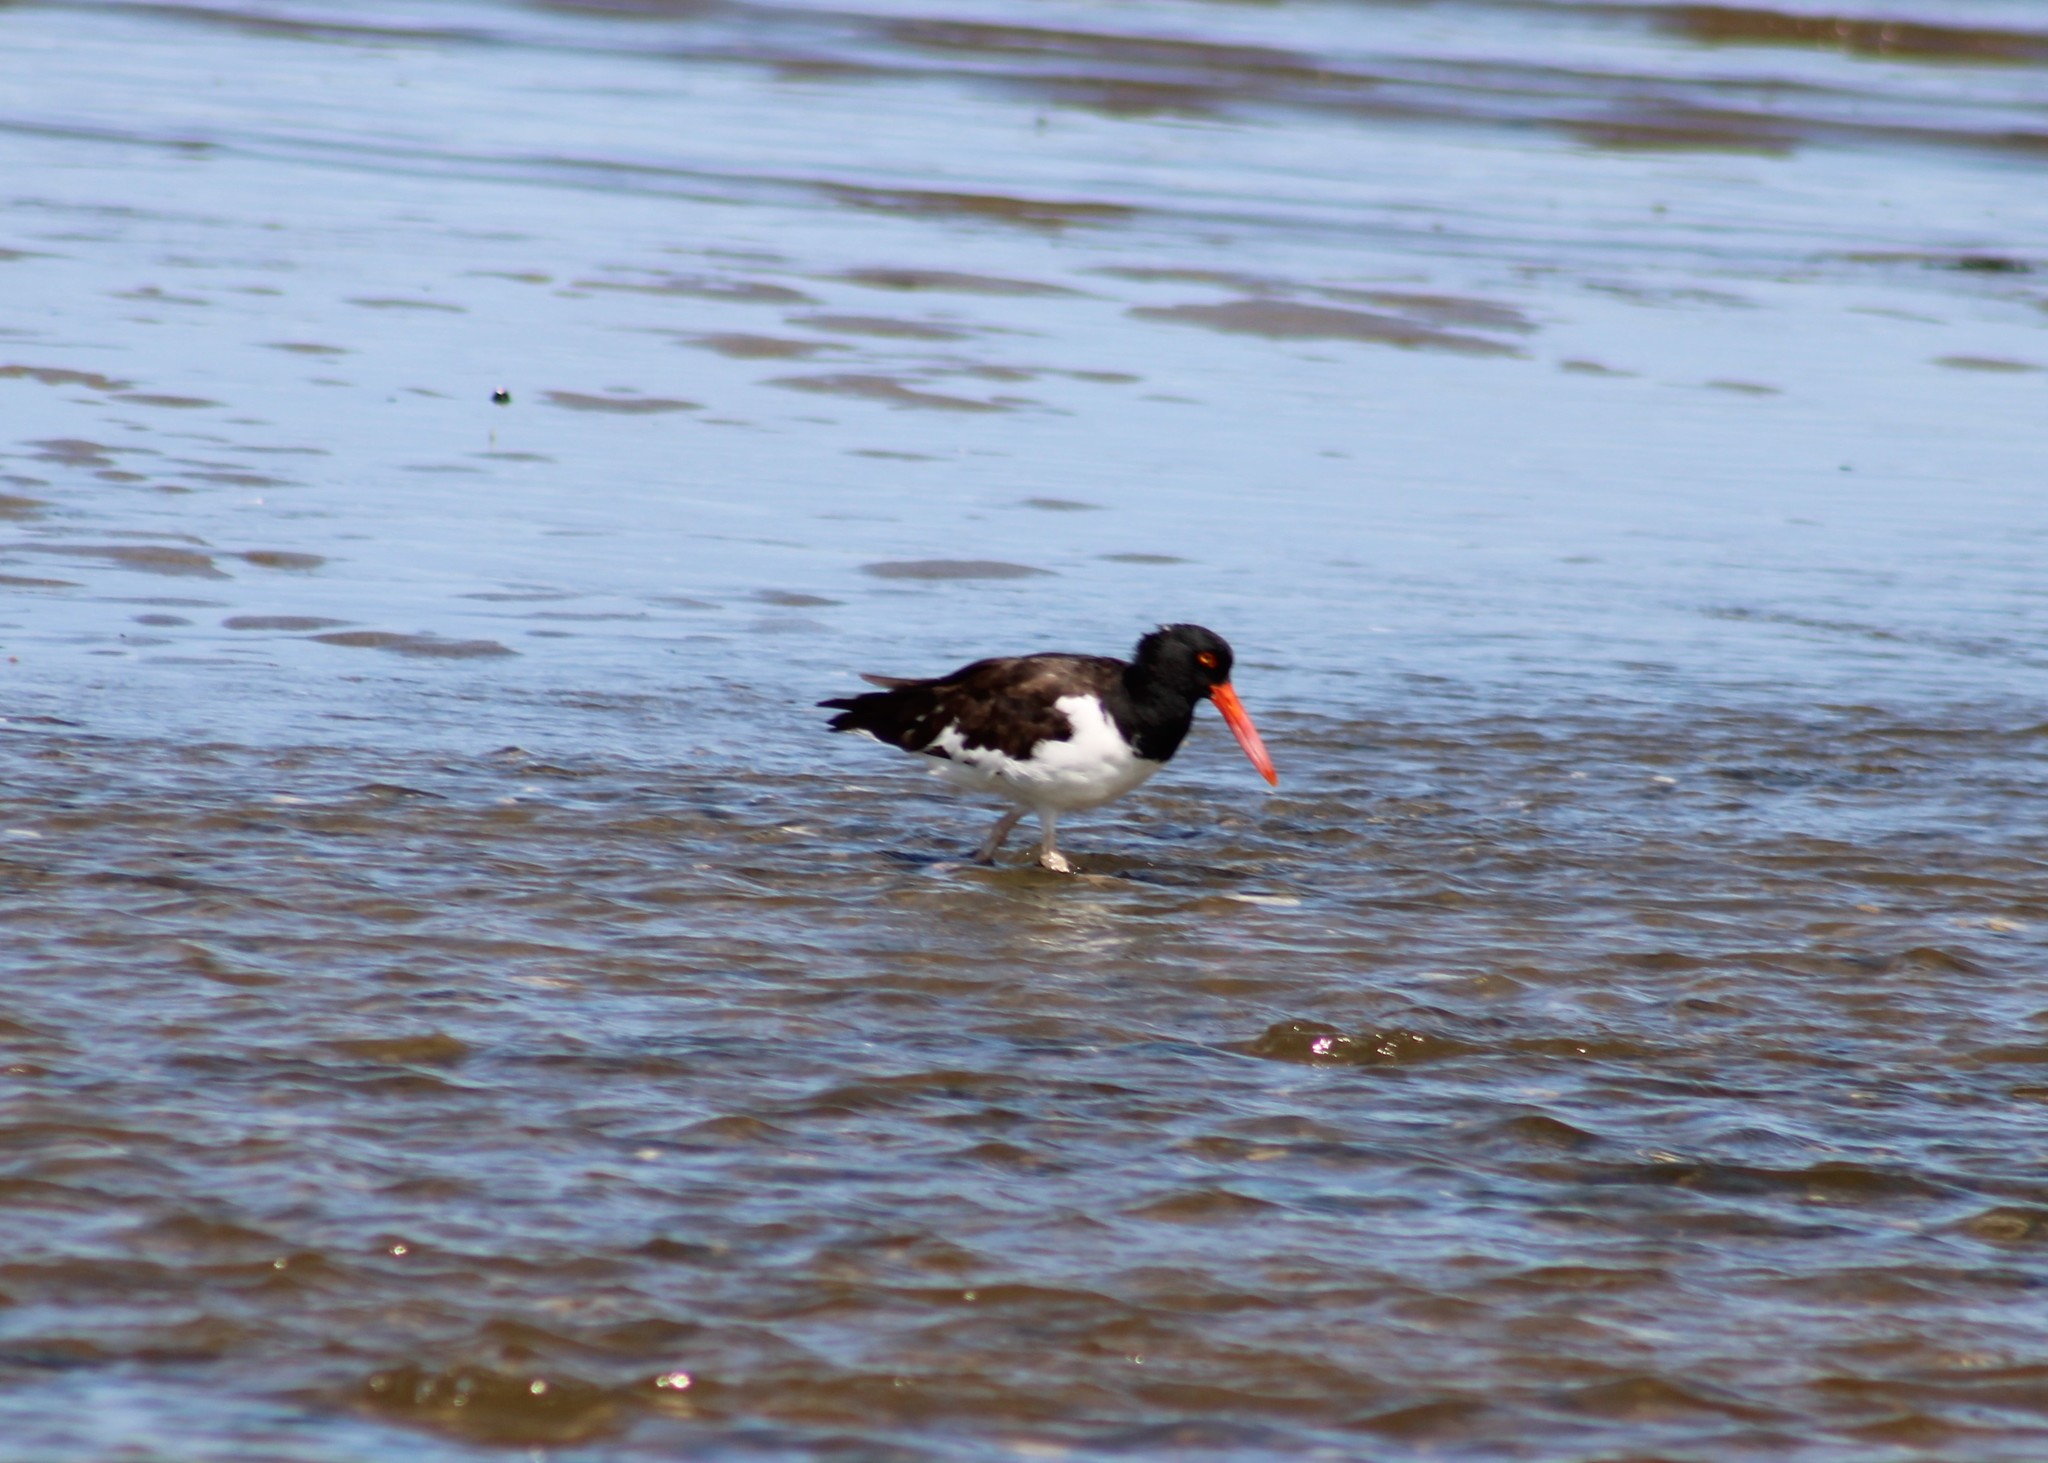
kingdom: Animalia
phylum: Chordata
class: Aves
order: Charadriiformes
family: Haematopodidae
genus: Haematopus
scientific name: Haematopus palliatus
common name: American oystercatcher
